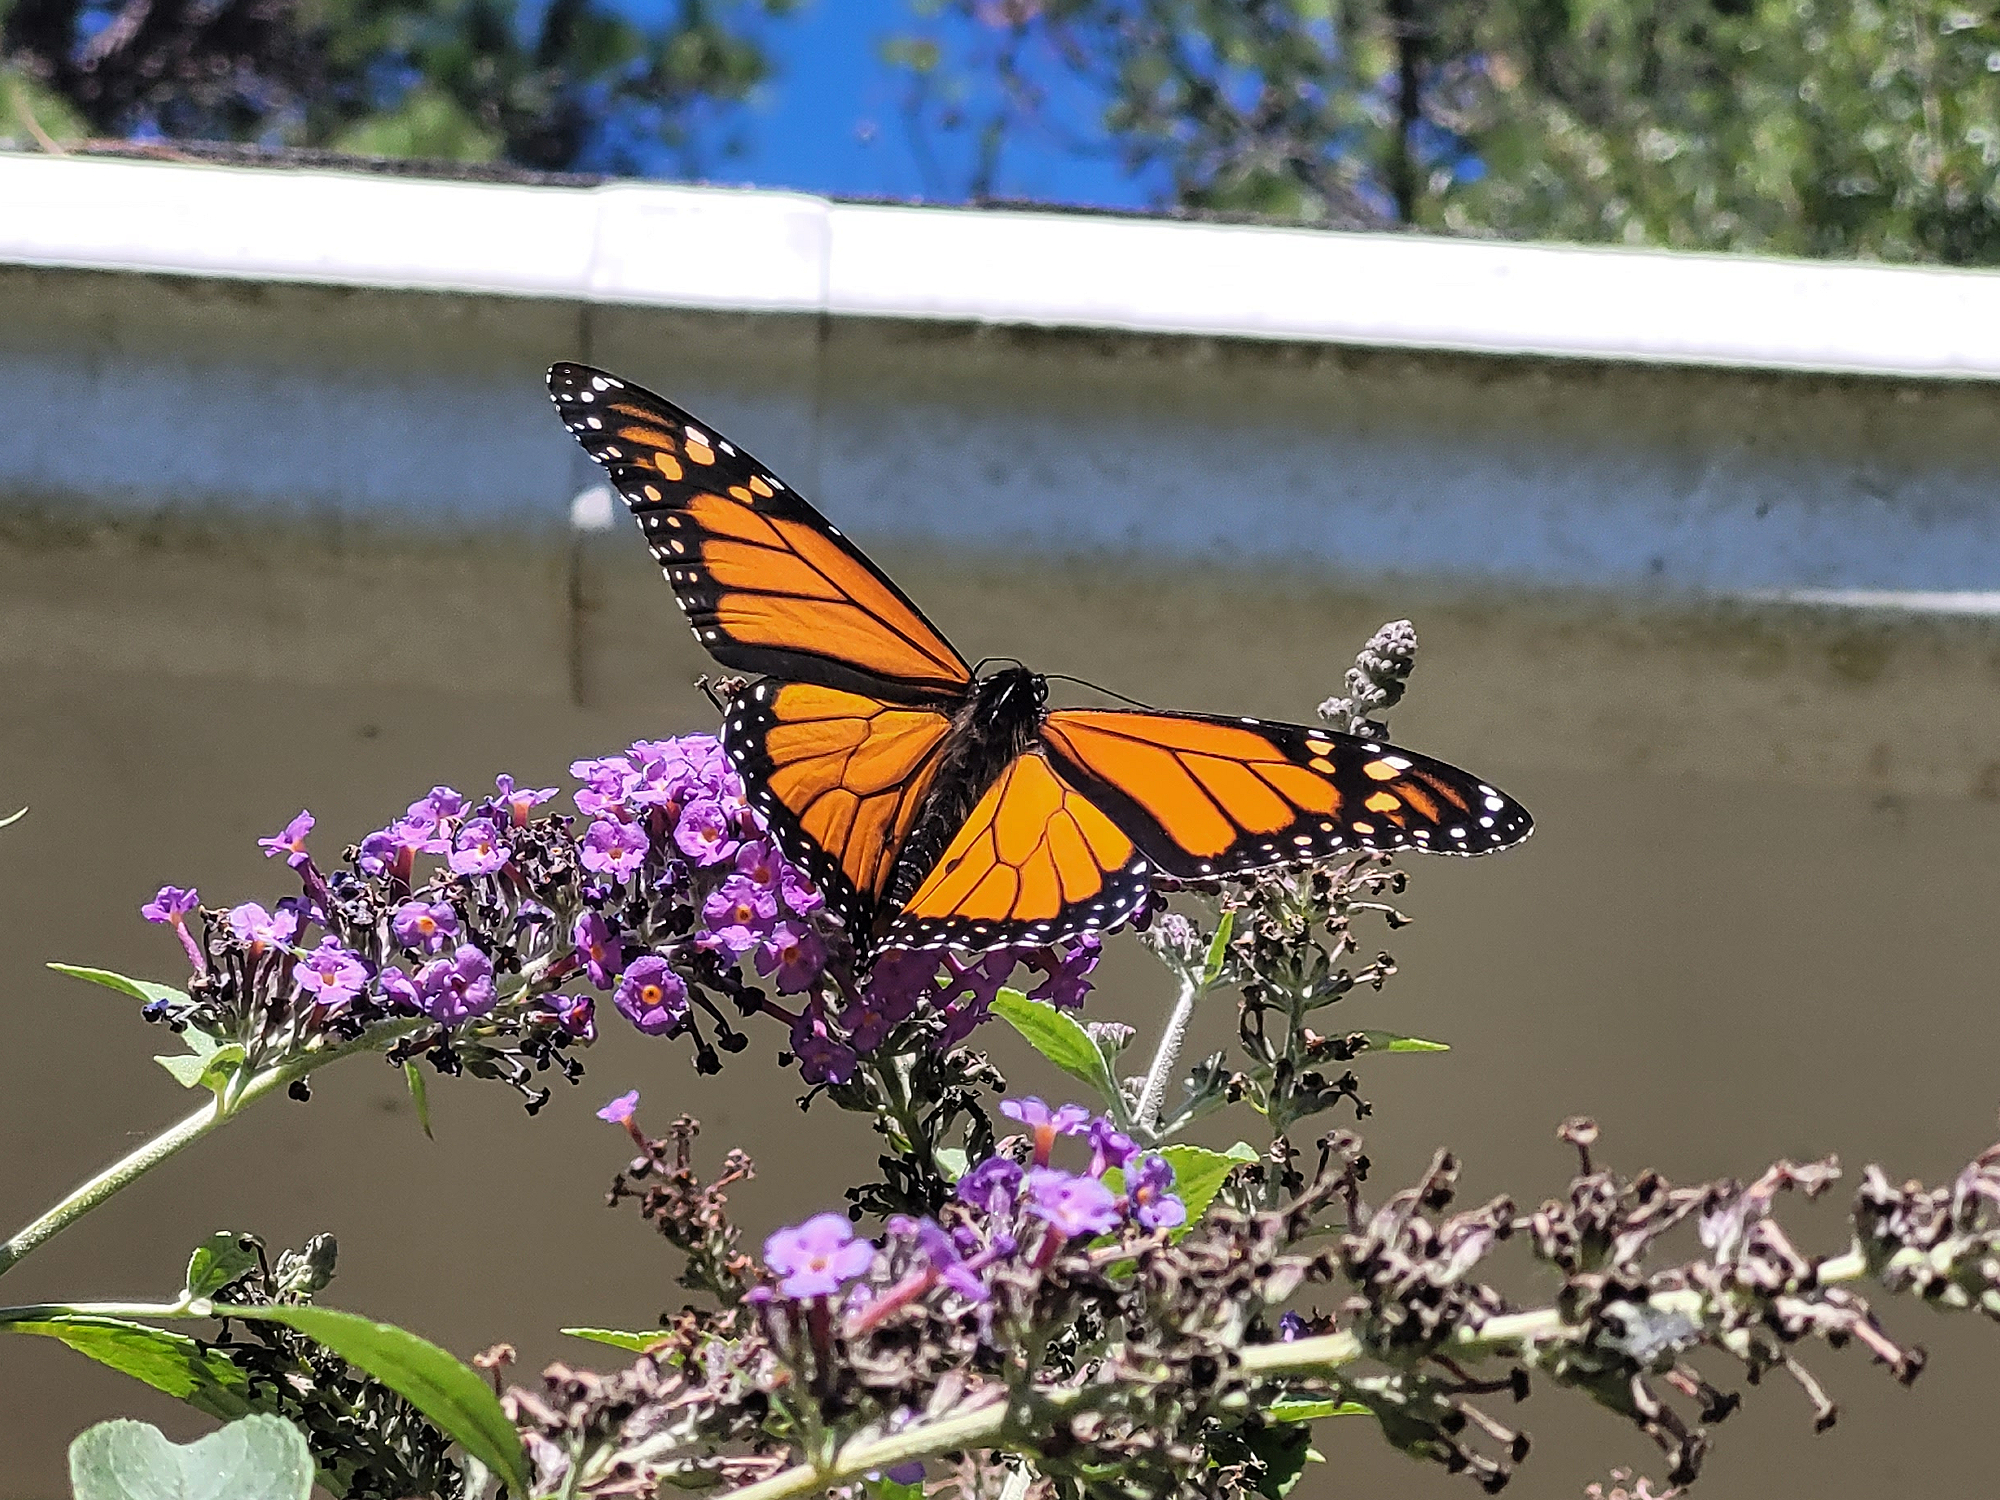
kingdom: Animalia
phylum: Arthropoda
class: Insecta
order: Lepidoptera
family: Nymphalidae
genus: Danaus
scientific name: Danaus plexippus
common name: Monarch
